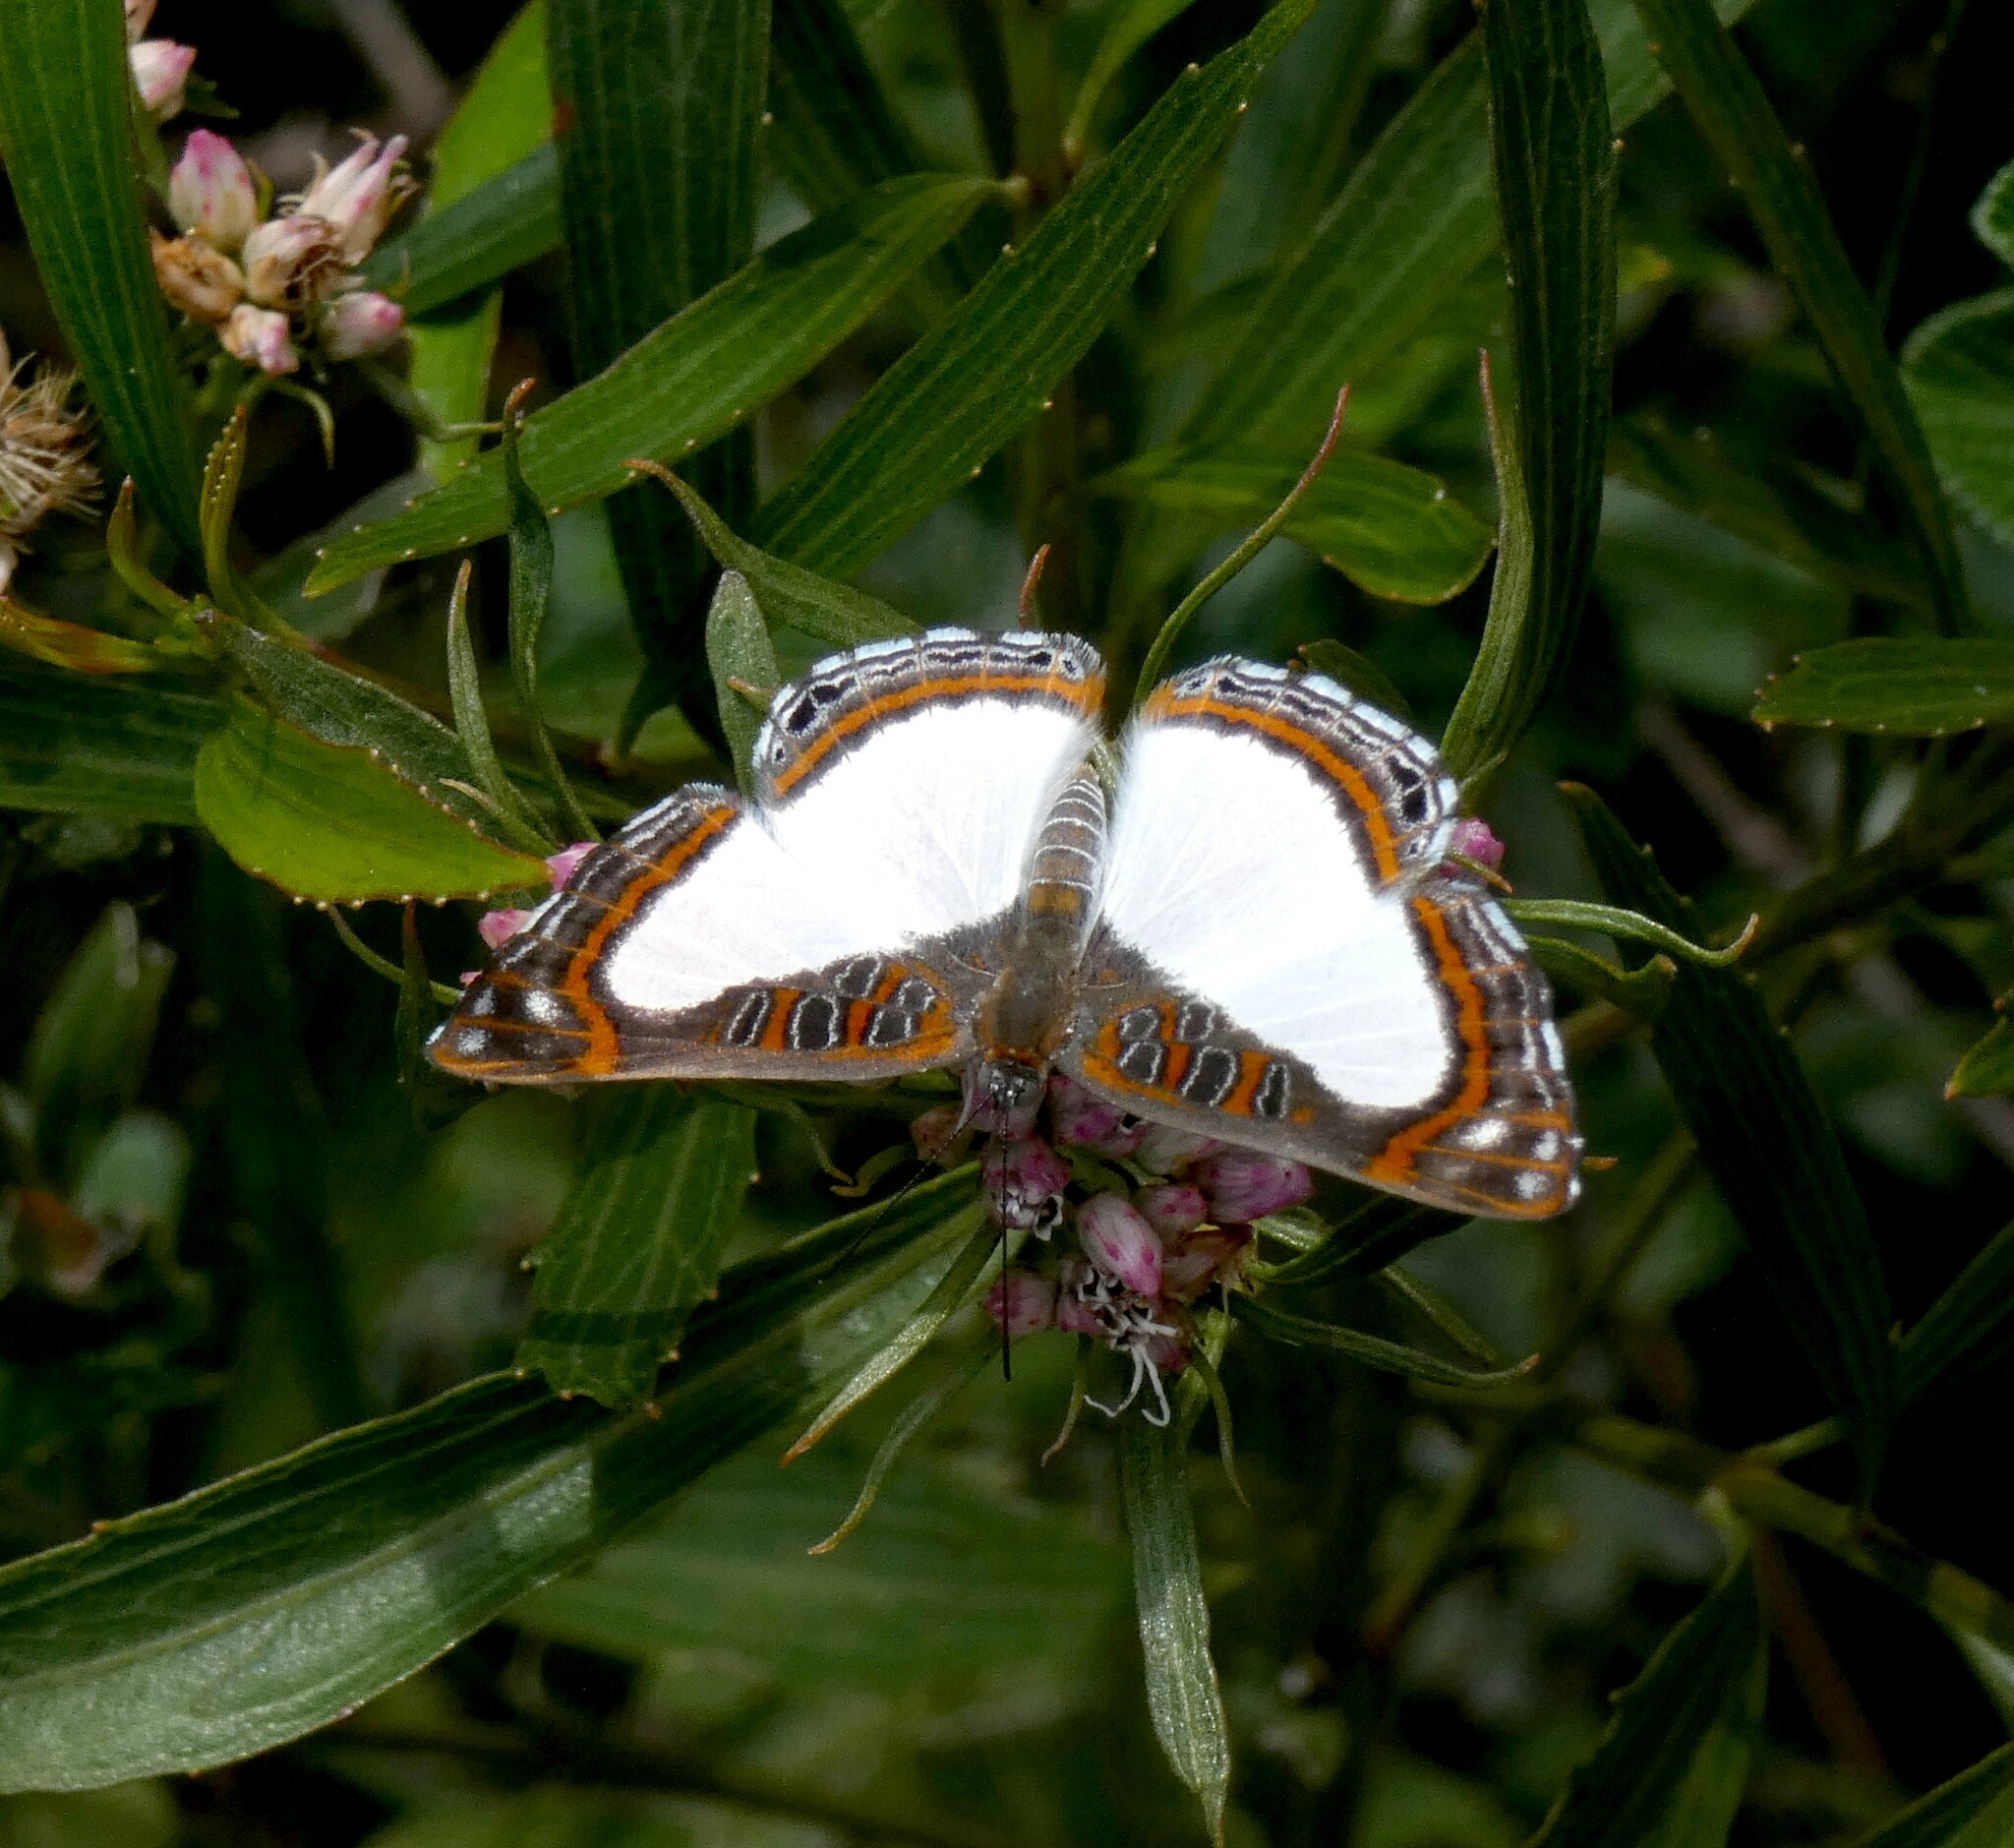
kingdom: Animalia
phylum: Arthropoda
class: Insecta
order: Lepidoptera
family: Riodinidae
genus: Synargis
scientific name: Synargis
